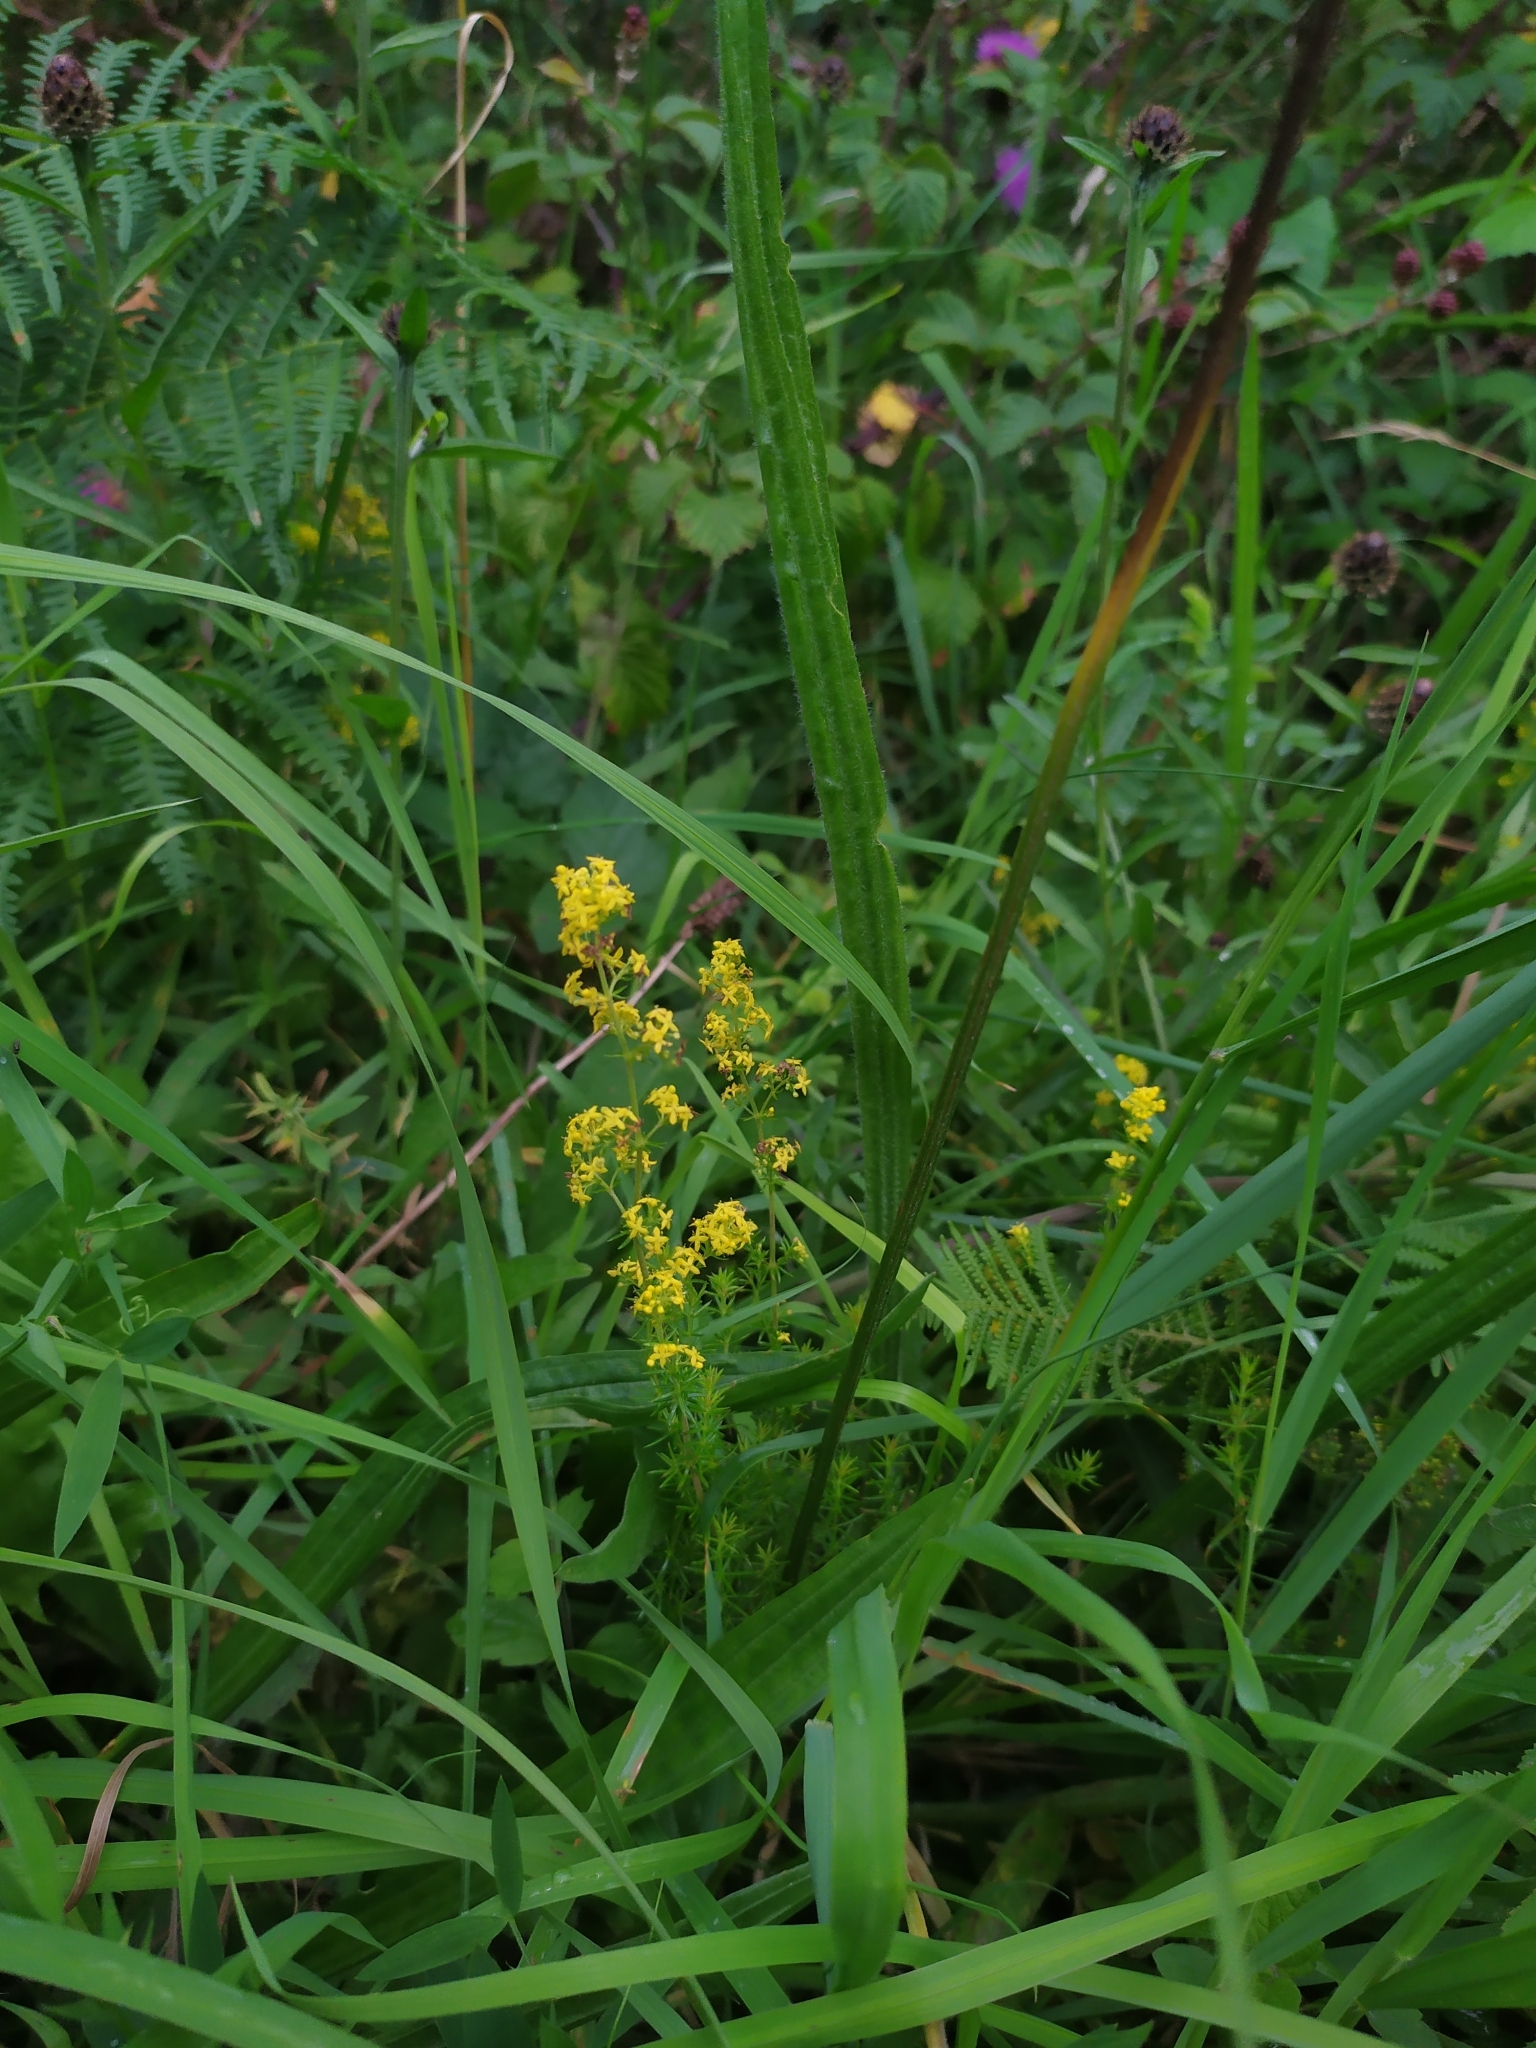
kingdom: Plantae
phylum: Tracheophyta
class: Magnoliopsida
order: Gentianales
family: Rubiaceae
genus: Galium
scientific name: Galium verum
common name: Lady's bedstraw
